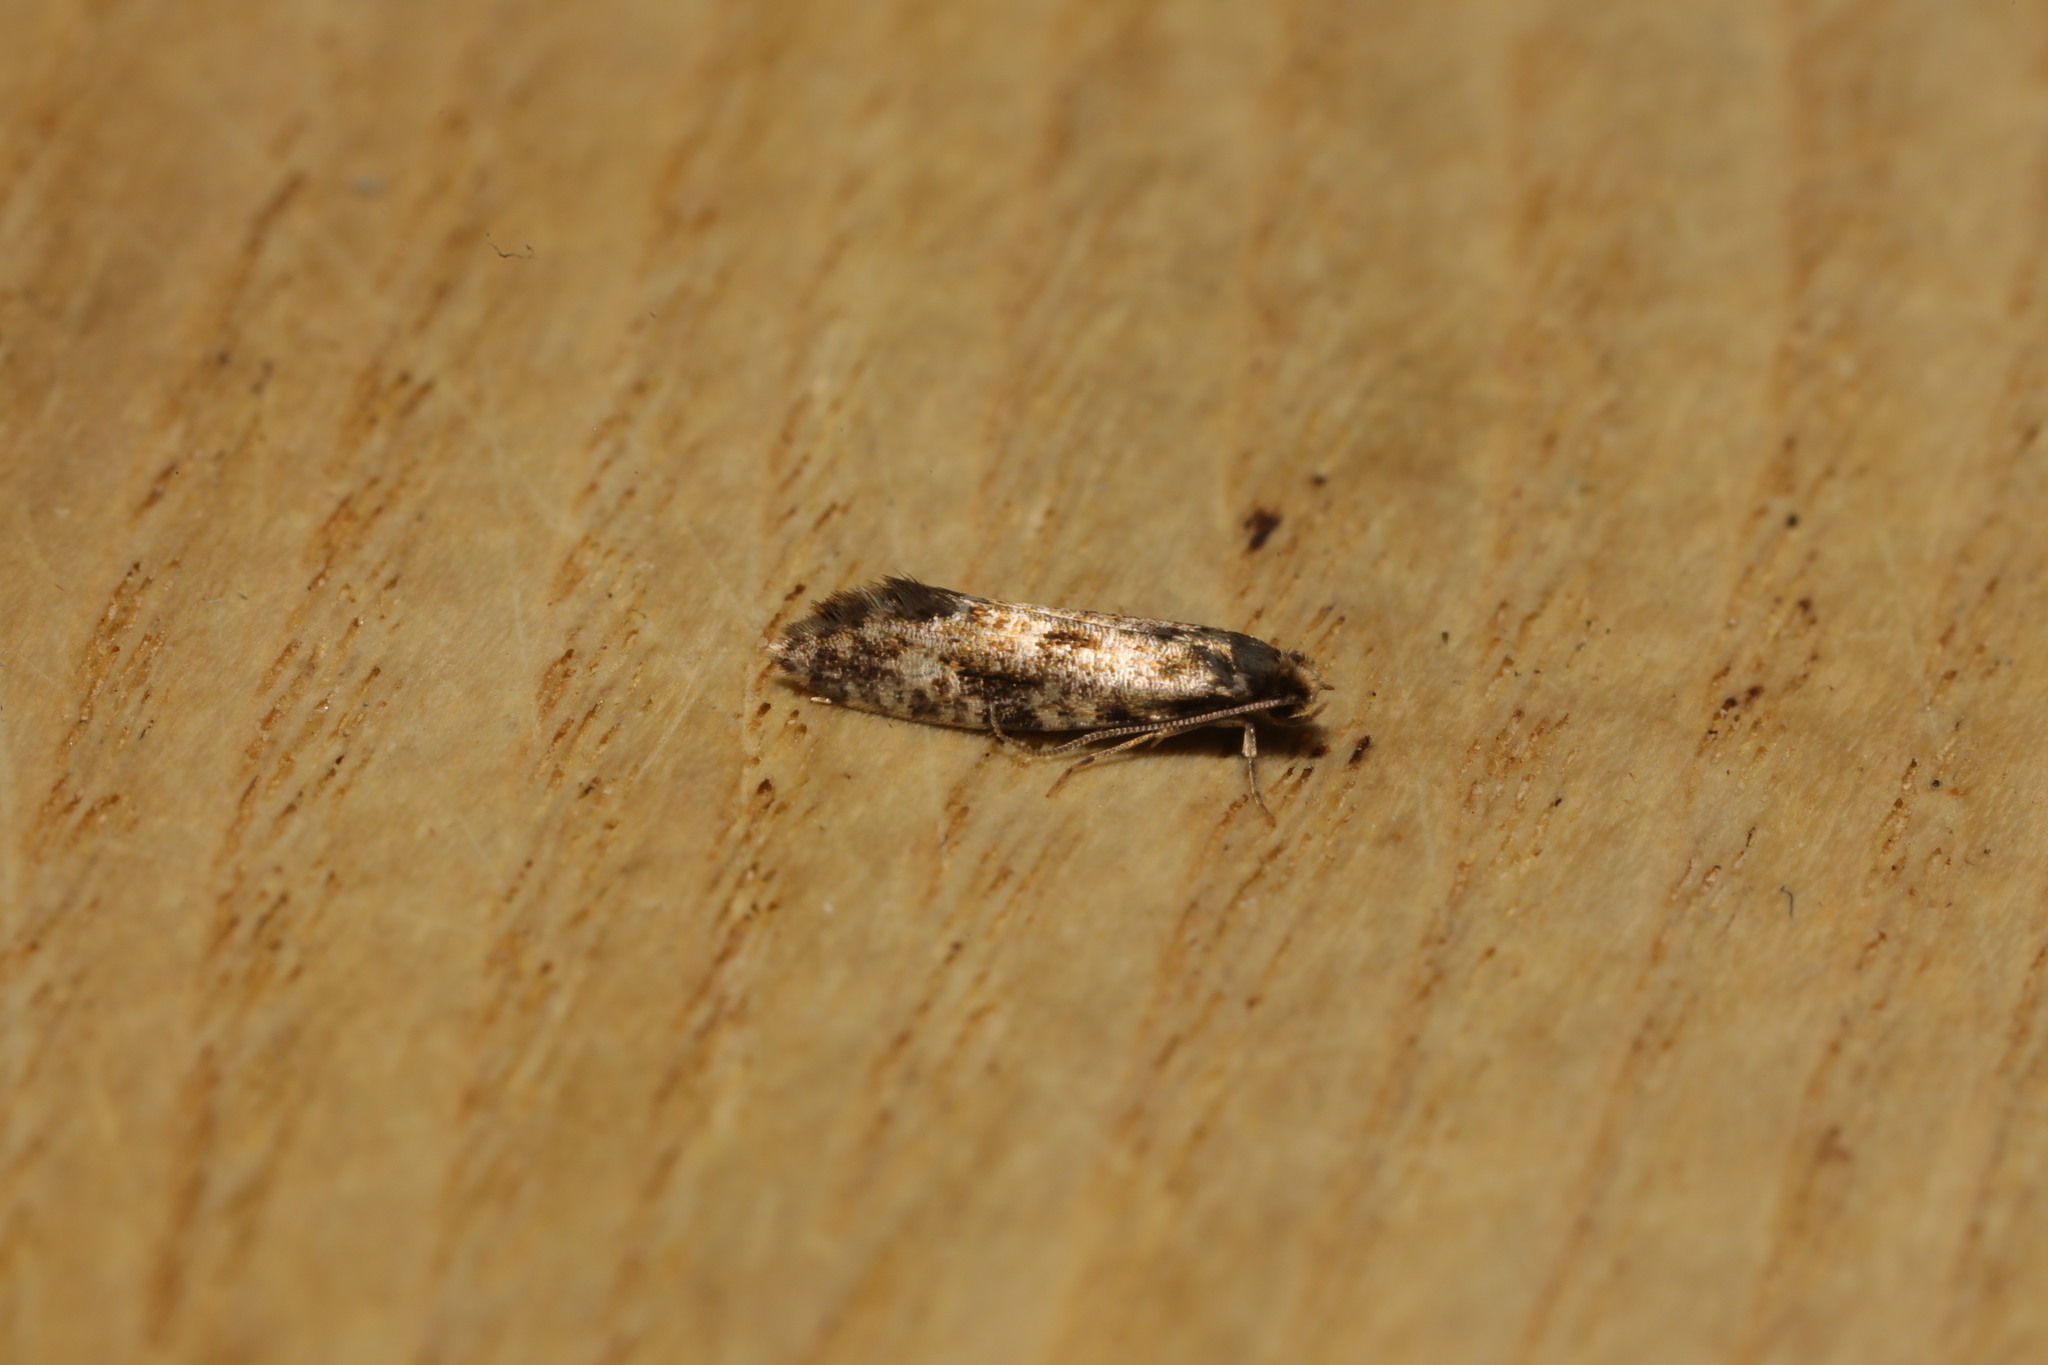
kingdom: Animalia
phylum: Arthropoda
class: Insecta
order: Lepidoptera
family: Tineidae
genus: Nemapogon
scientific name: Nemapogon cloacella
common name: Cork moth
